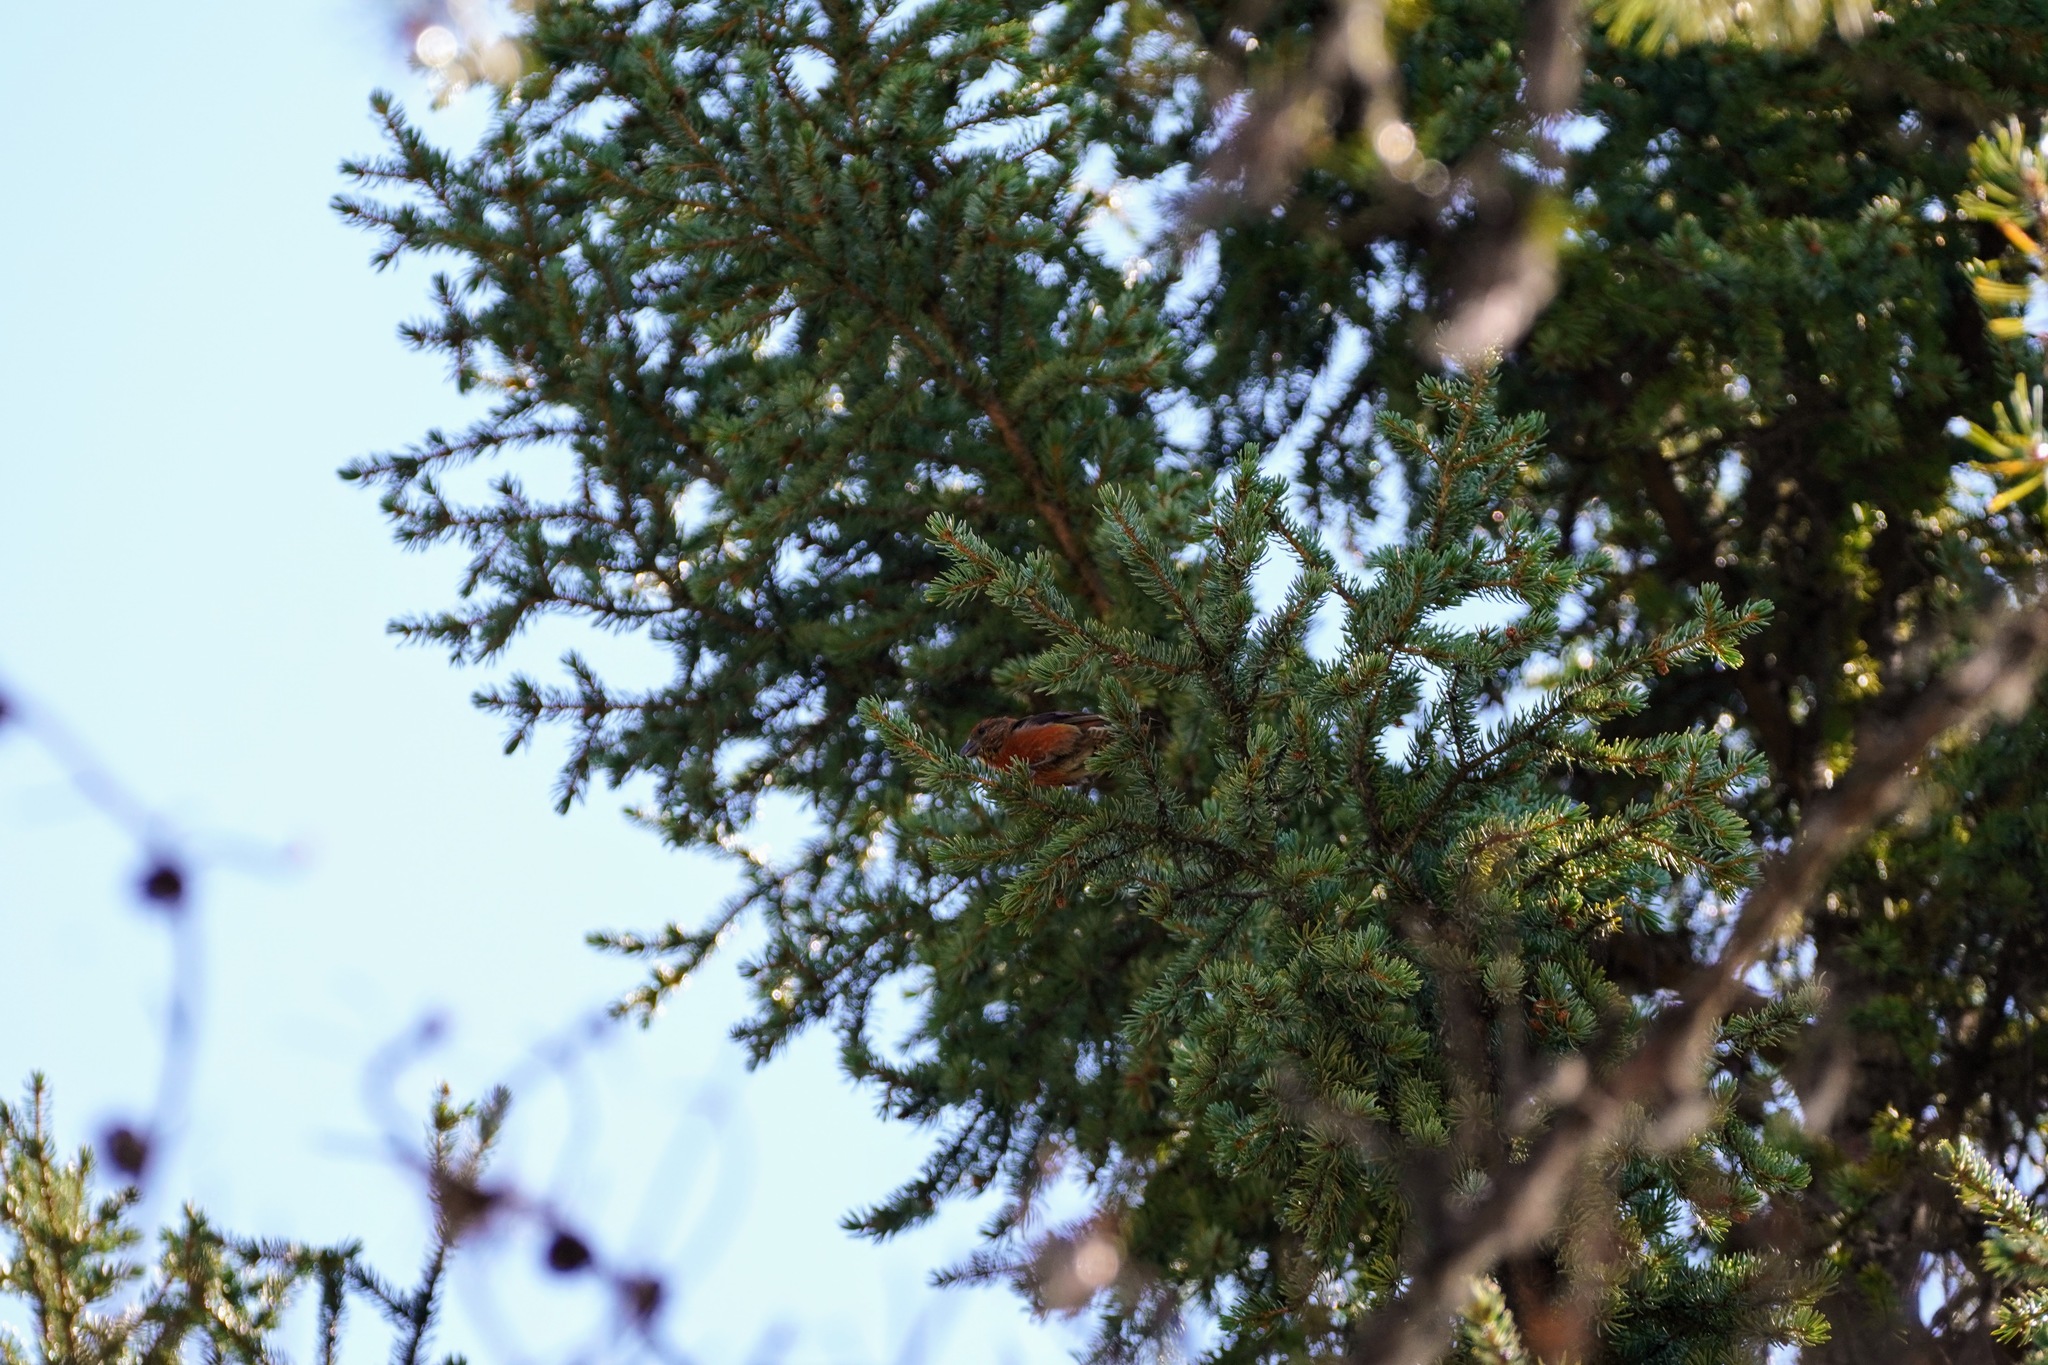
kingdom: Animalia
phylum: Chordata
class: Aves
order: Passeriformes
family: Fringillidae
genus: Loxia
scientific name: Loxia curvirostra
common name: Red crossbill
